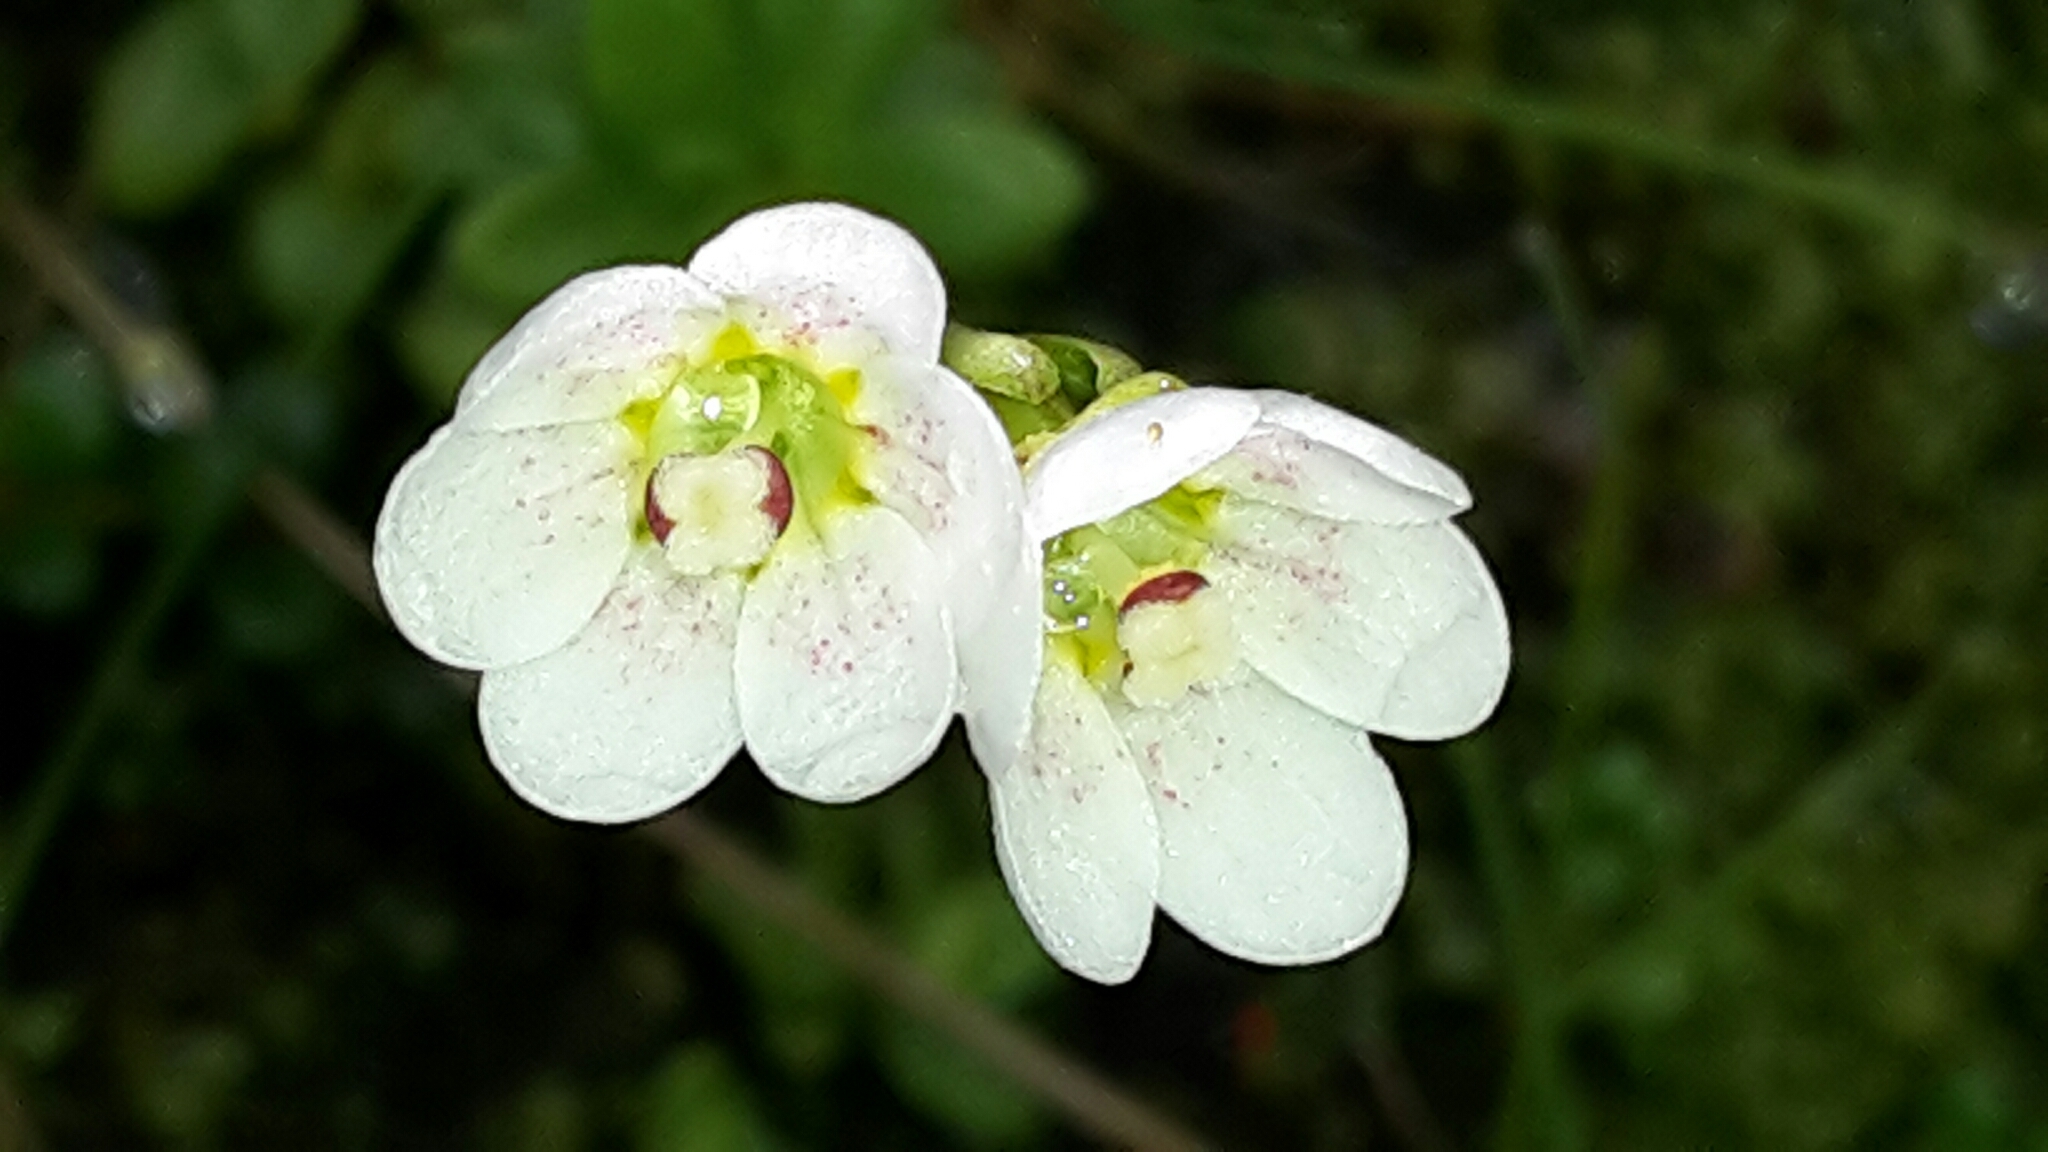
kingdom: Plantae
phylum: Tracheophyta
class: Magnoliopsida
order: Asterales
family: Stylidiaceae
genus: Forstera
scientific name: Forstera tenella
